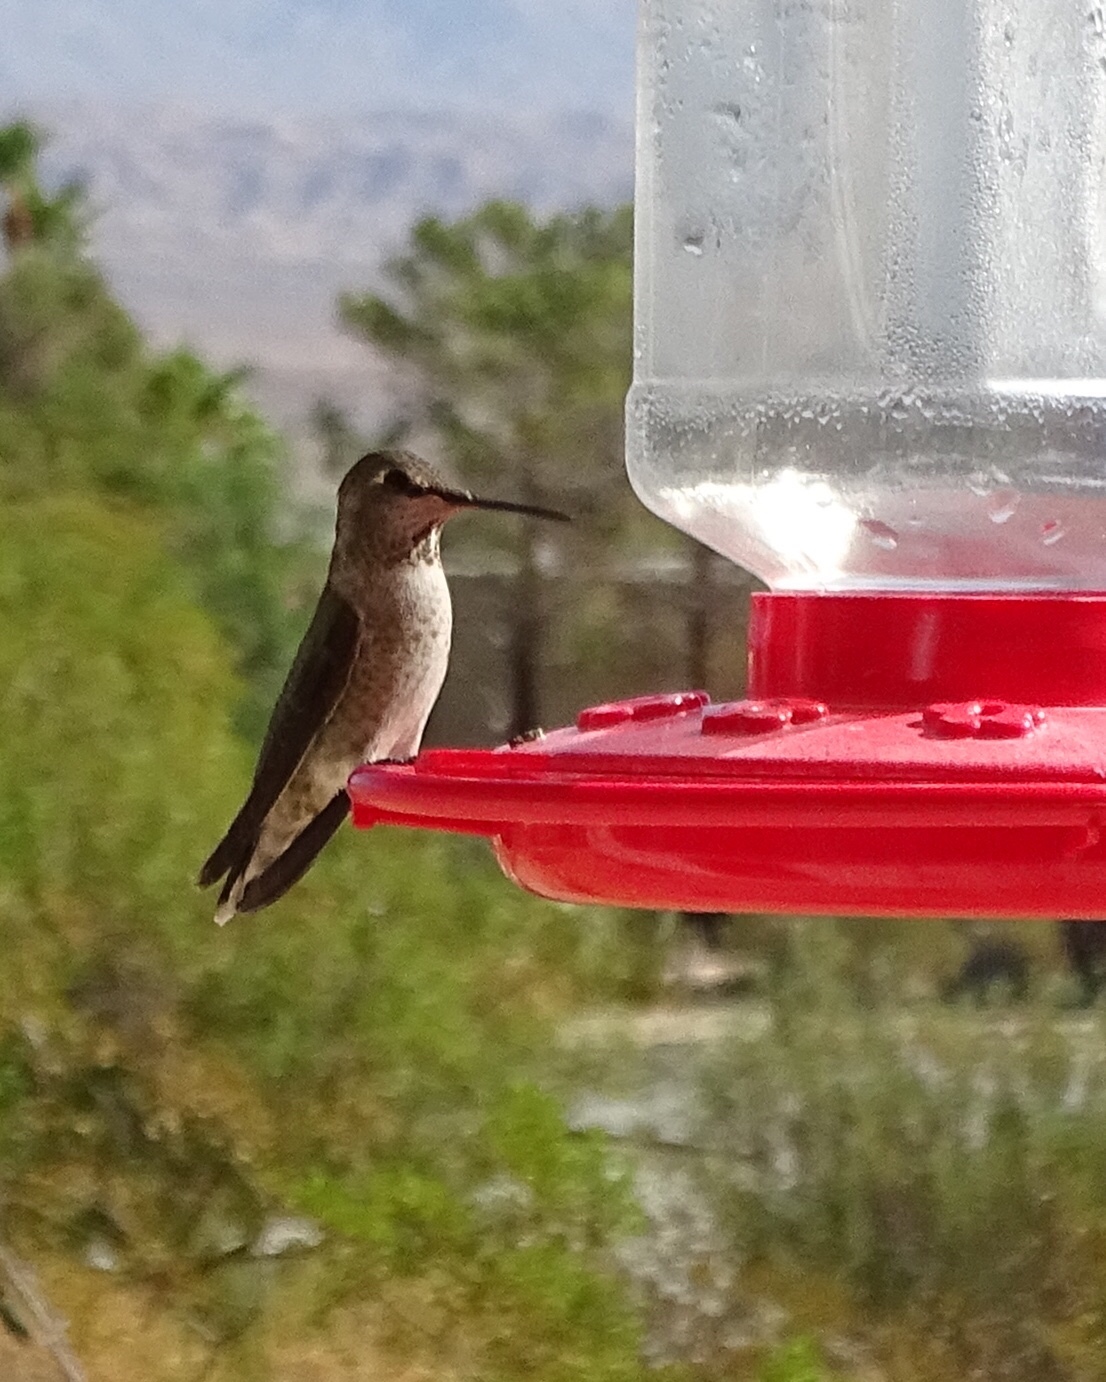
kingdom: Animalia
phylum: Chordata
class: Aves
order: Apodiformes
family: Trochilidae
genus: Calypte
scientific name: Calypte anna
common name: Anna's hummingbird
